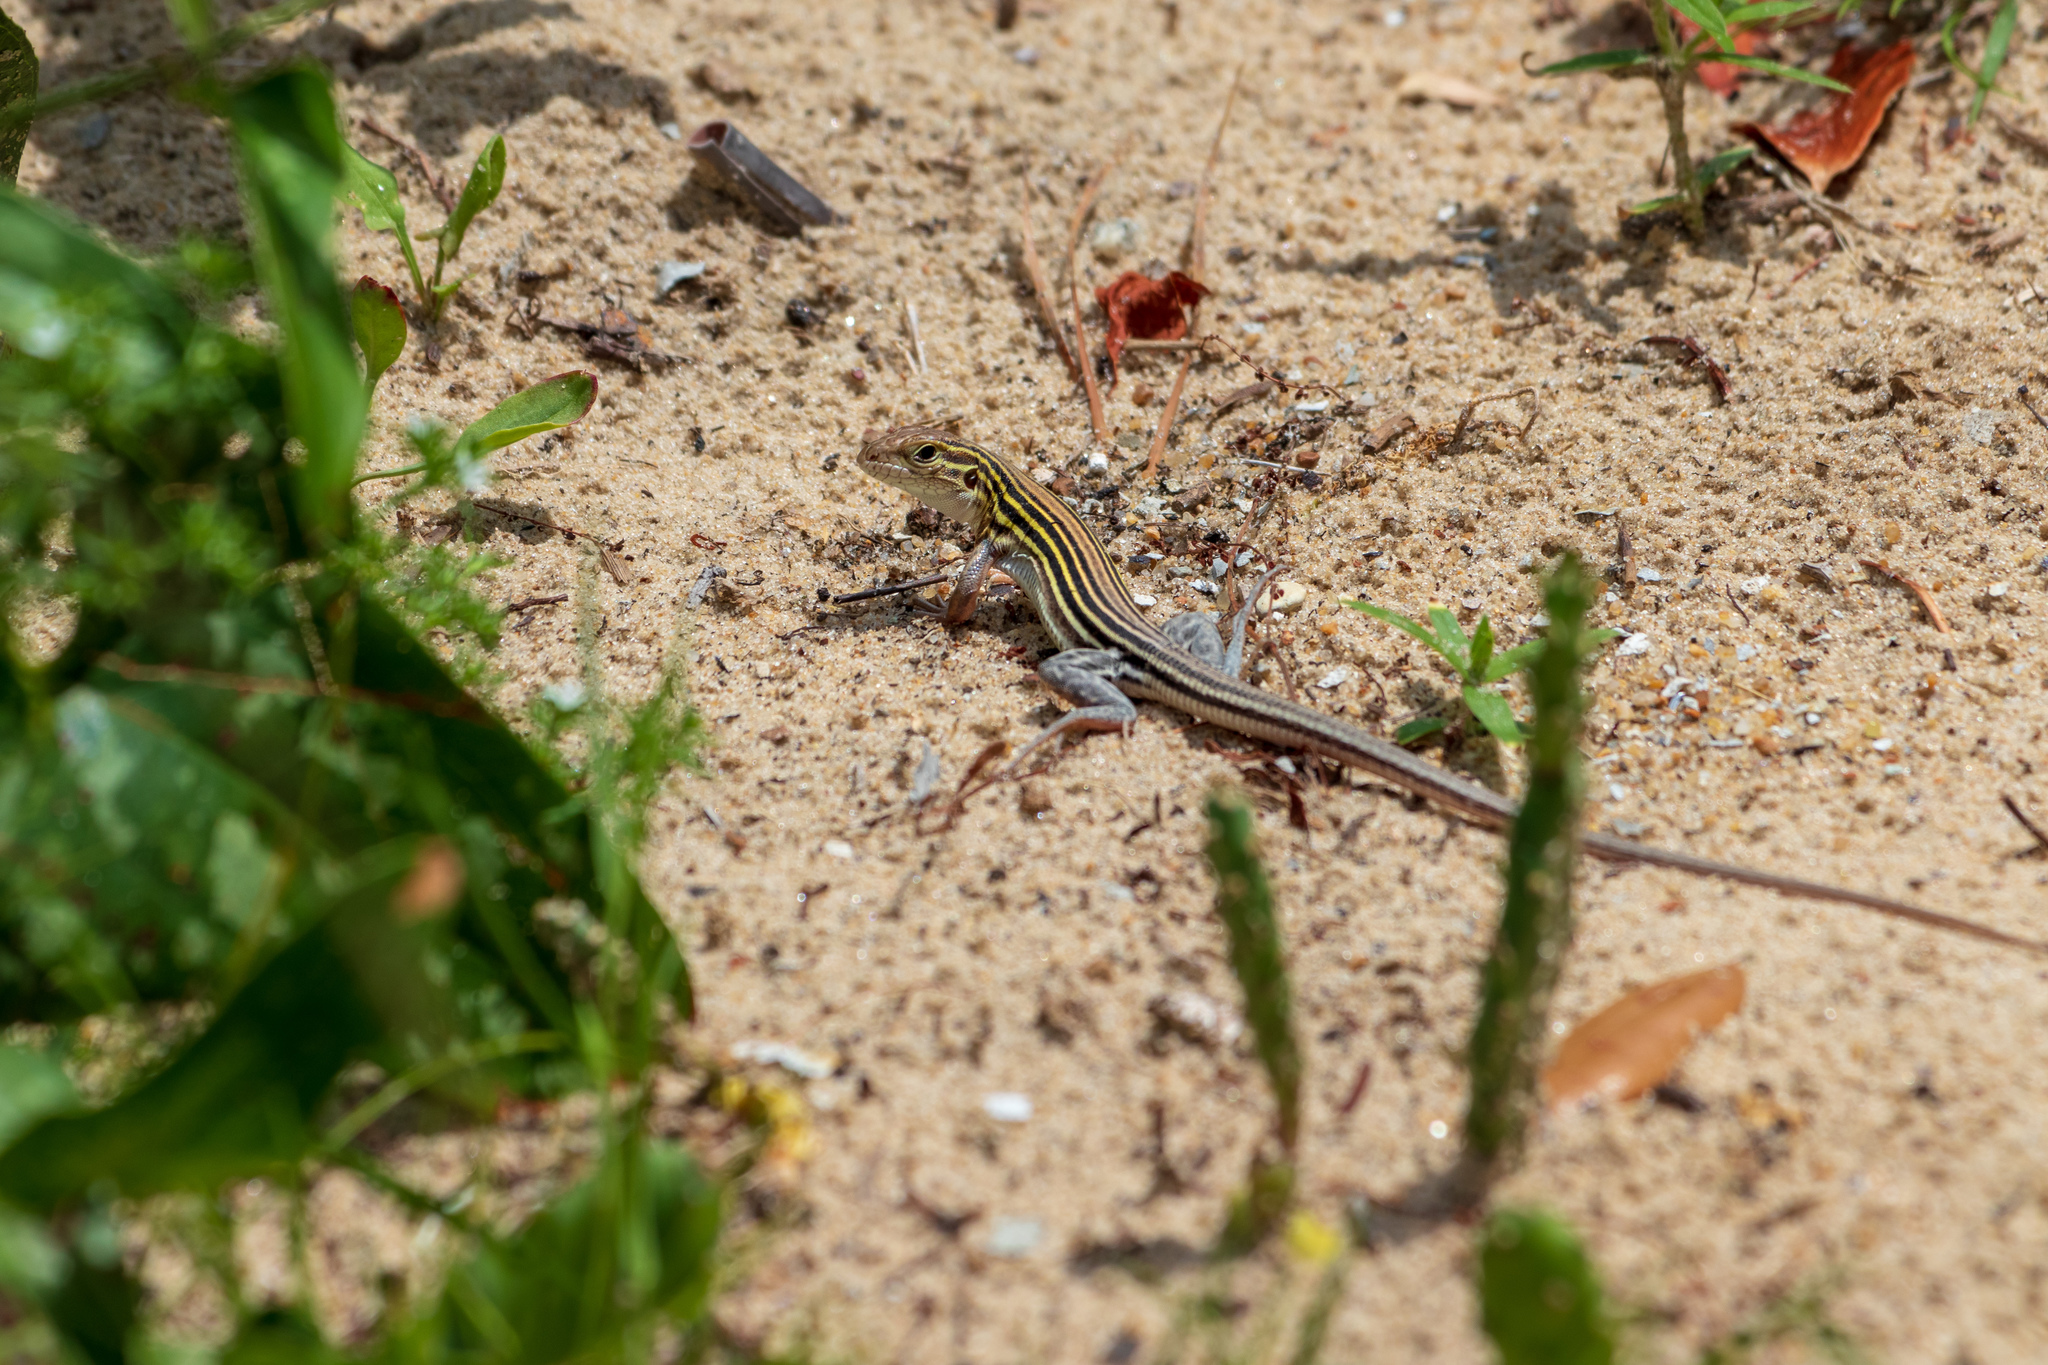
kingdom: Animalia
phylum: Chordata
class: Squamata
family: Teiidae
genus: Aspidoscelis
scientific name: Aspidoscelis sexlineatus
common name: Six-lined racerunner
